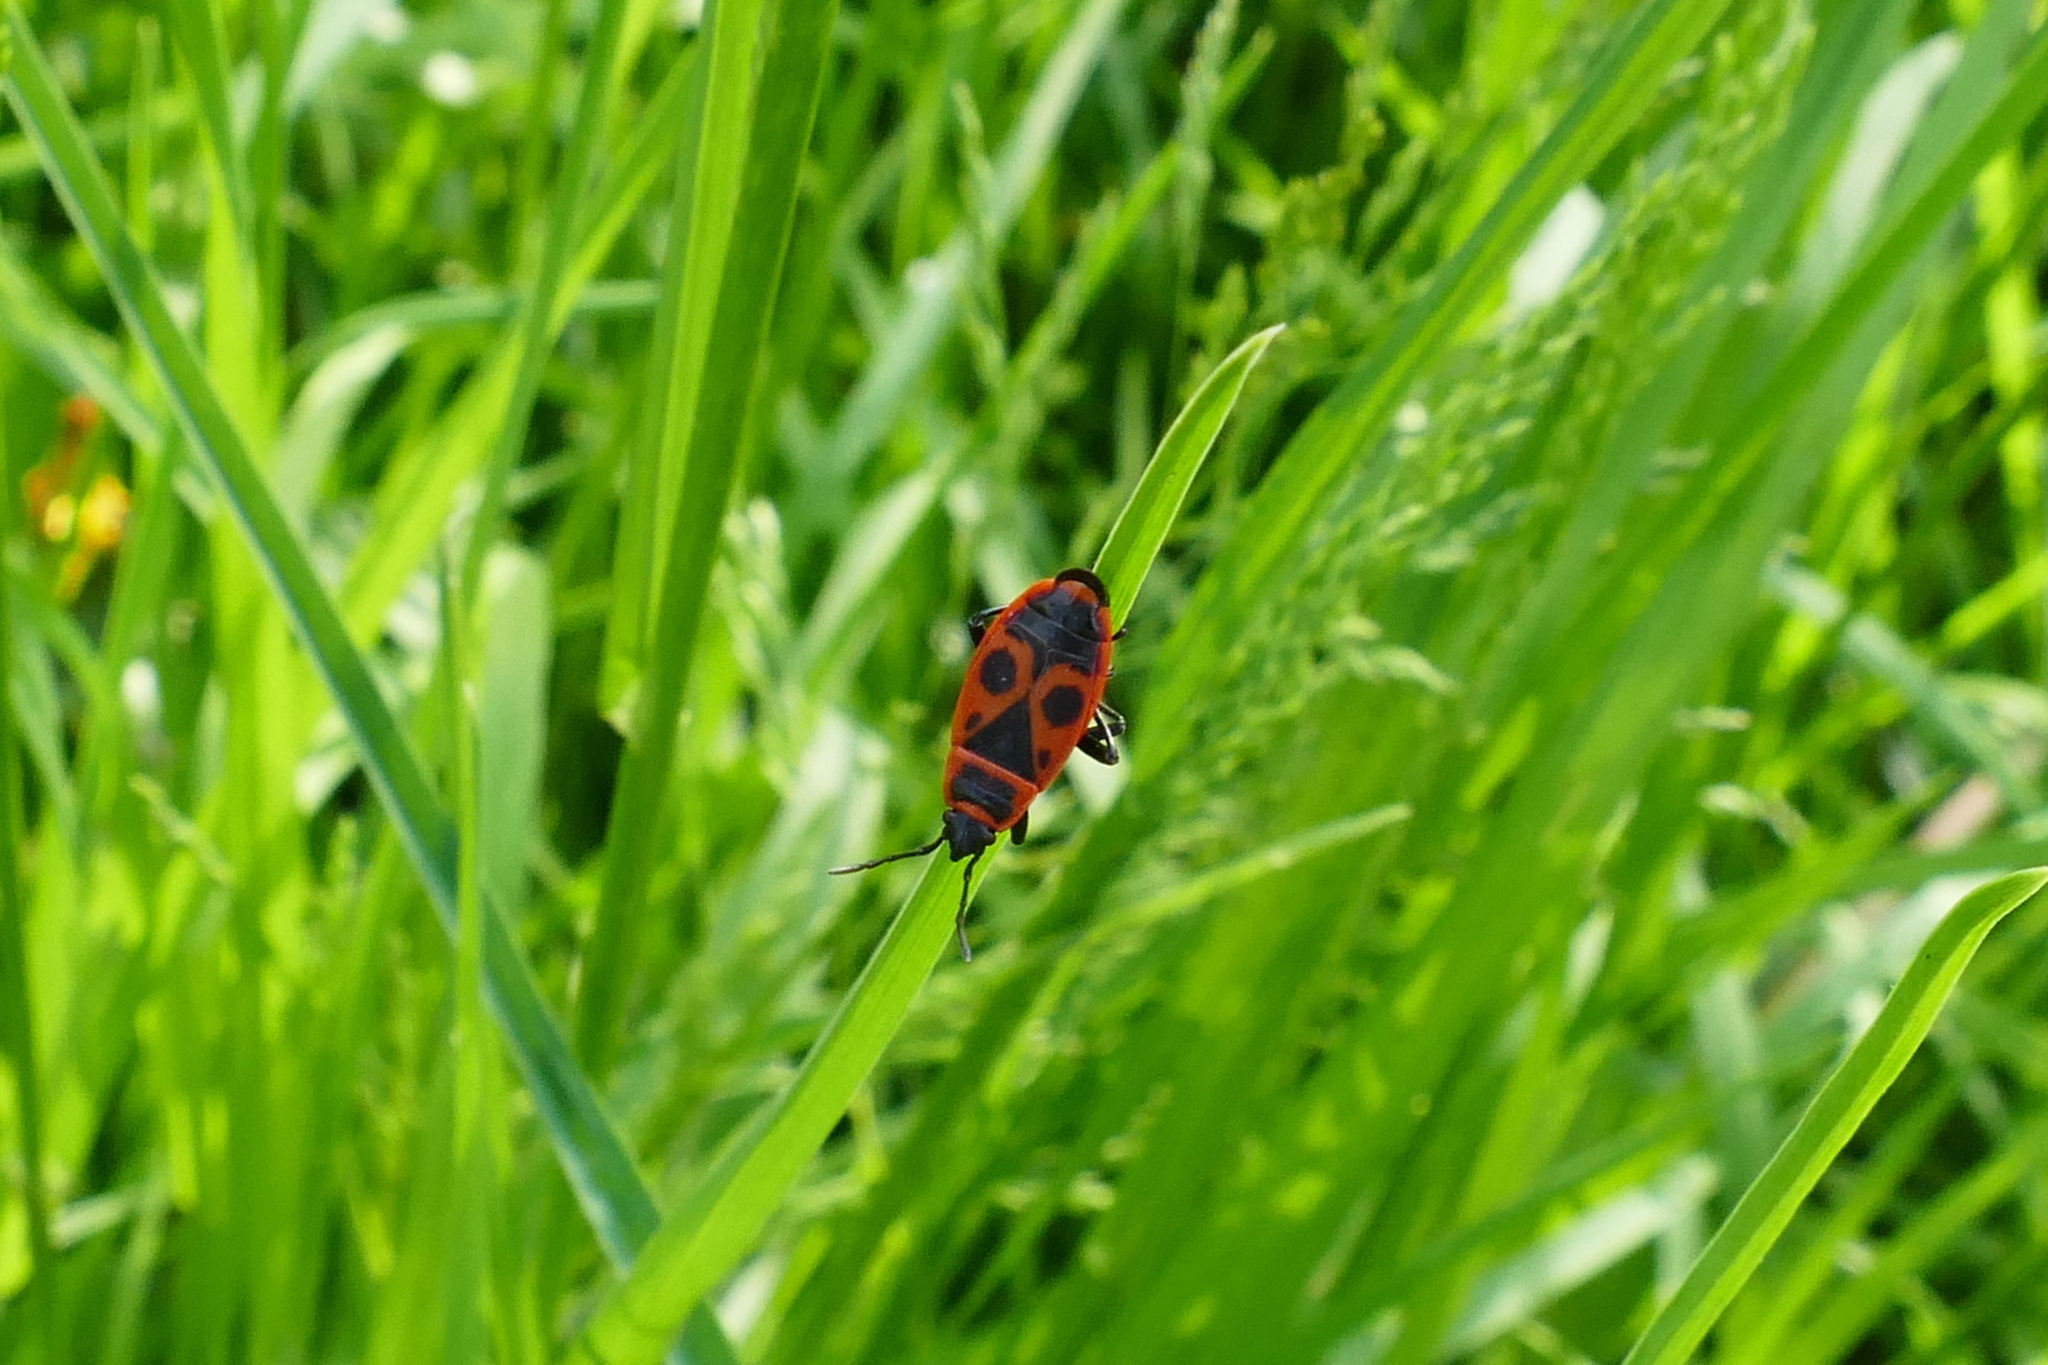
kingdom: Animalia
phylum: Arthropoda
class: Insecta
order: Hemiptera
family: Pyrrhocoridae
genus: Pyrrhocoris
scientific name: Pyrrhocoris apterus
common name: Firebug
